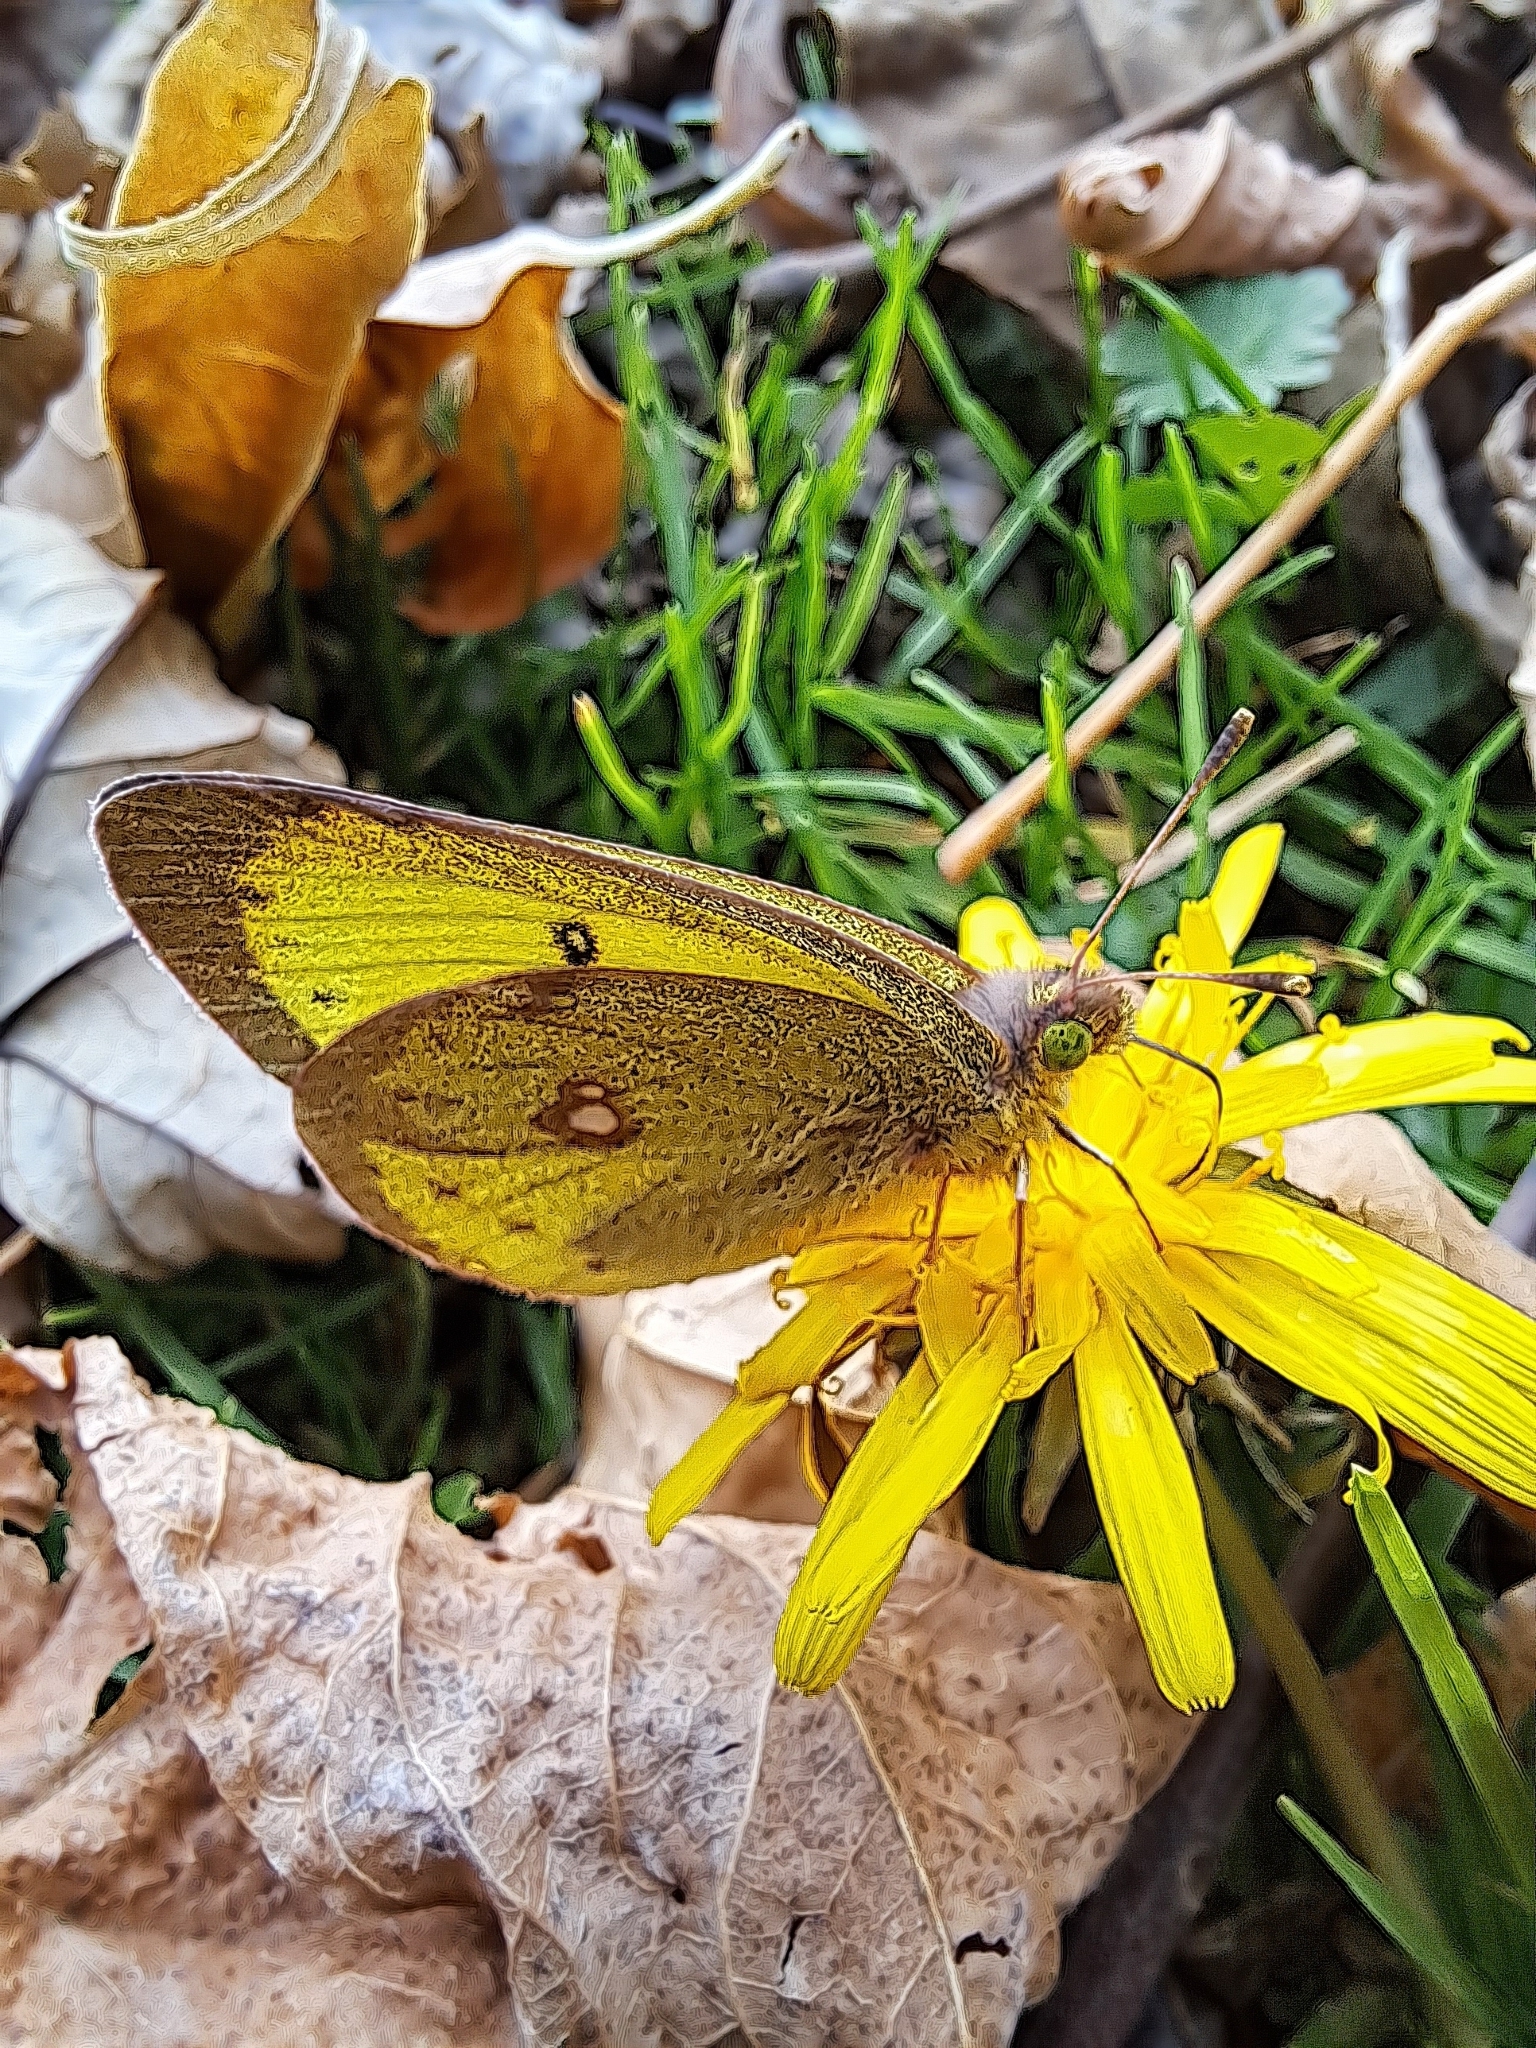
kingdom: Animalia
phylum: Arthropoda
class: Insecta
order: Lepidoptera
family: Pieridae
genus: Colias
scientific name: Colias philodice
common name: Clouded sulphur
